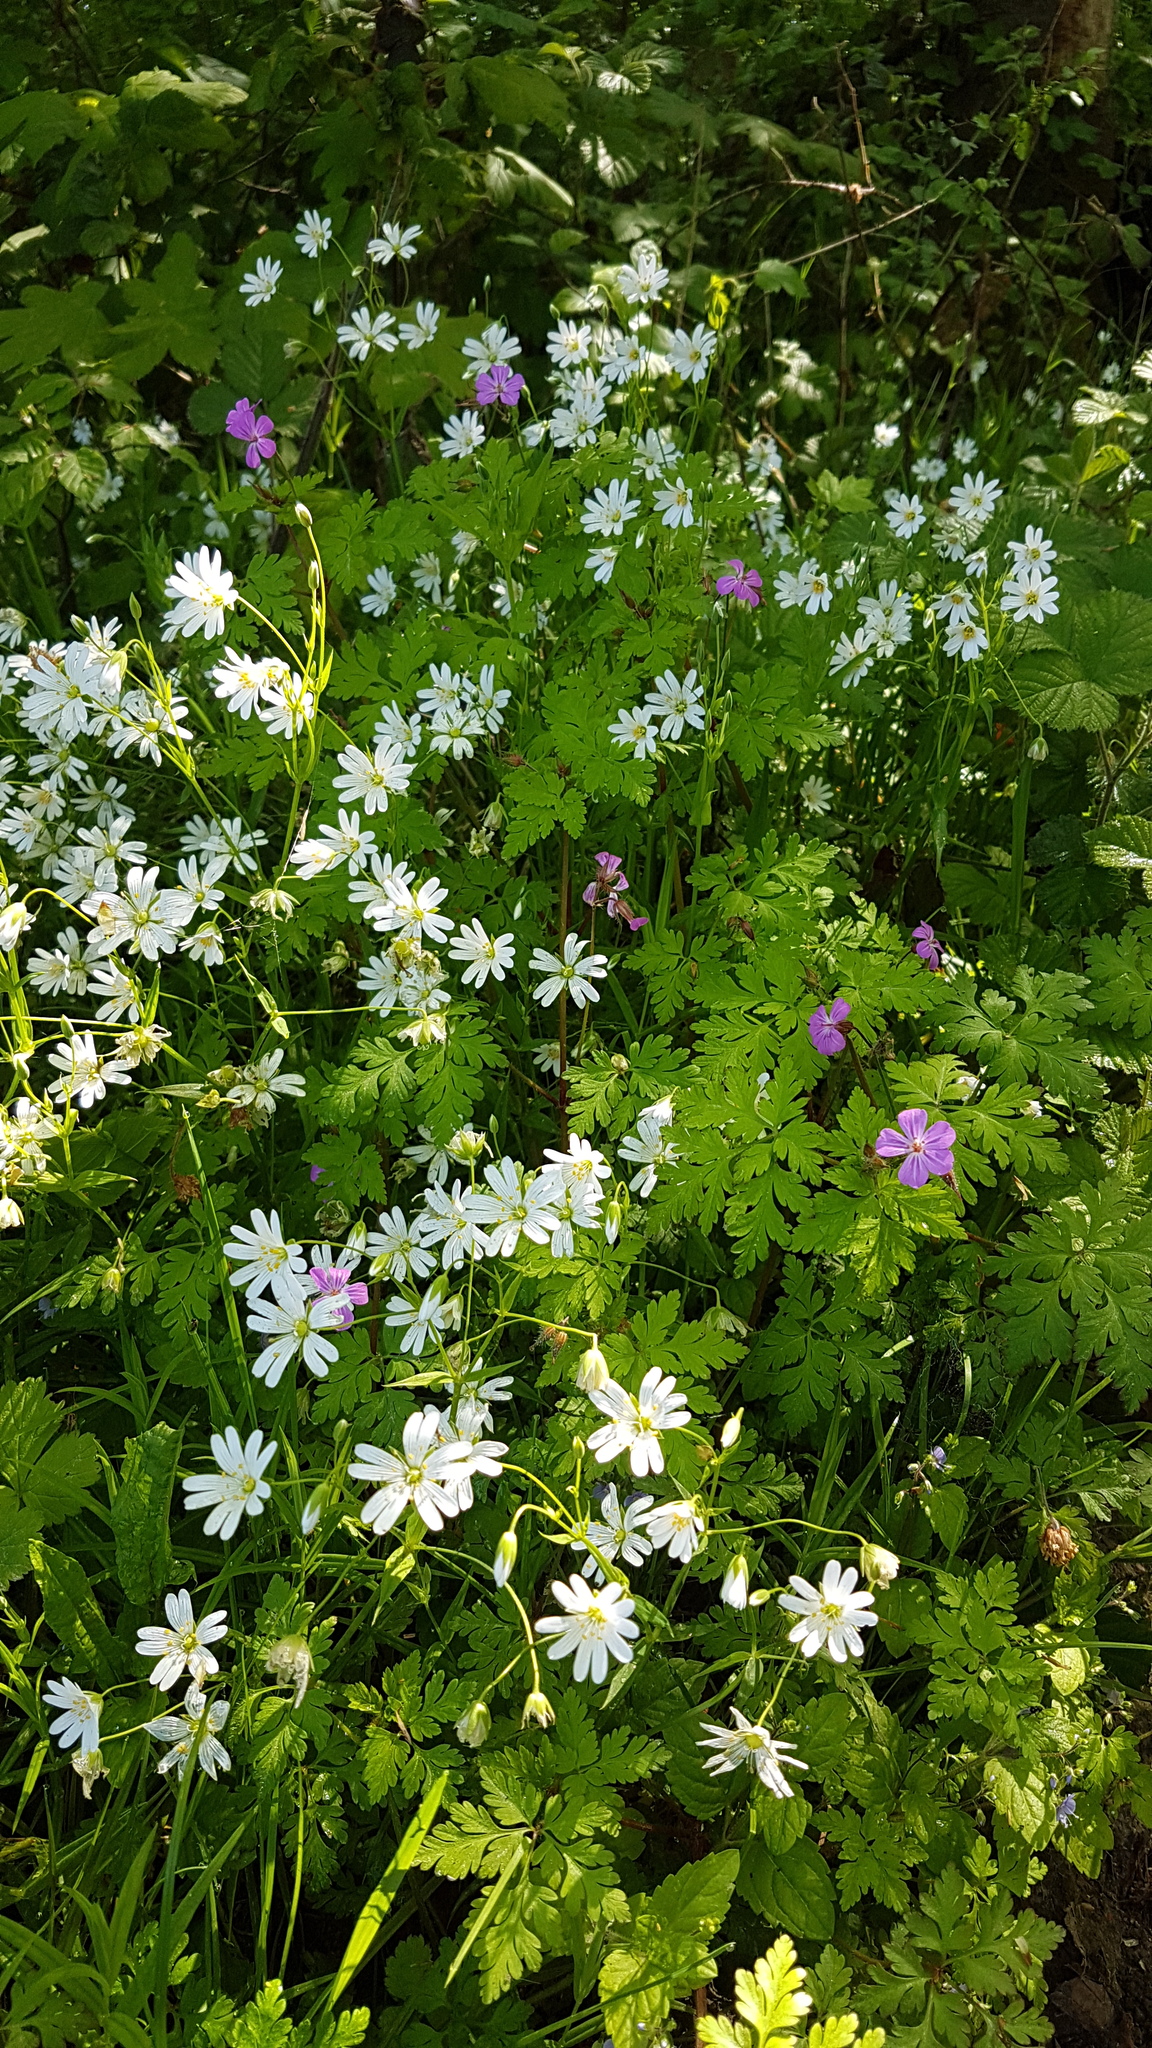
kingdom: Plantae
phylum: Tracheophyta
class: Magnoliopsida
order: Caryophyllales
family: Caryophyllaceae
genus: Rabelera
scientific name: Rabelera holostea
